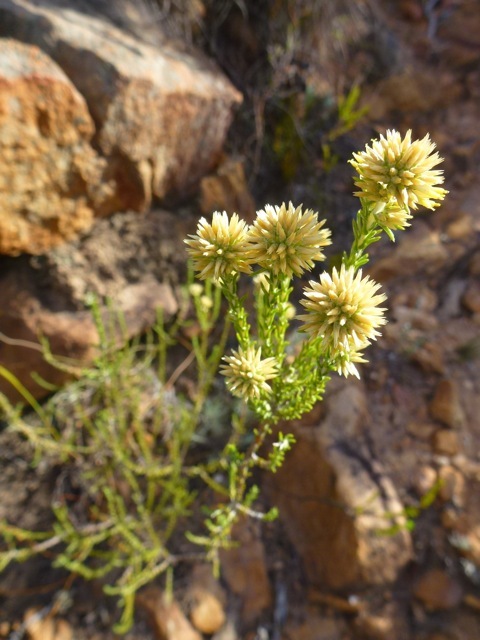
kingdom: Plantae
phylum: Tracheophyta
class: Magnoliopsida
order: Asterales
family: Asteraceae
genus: Seriphium
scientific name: Seriphium spirale
